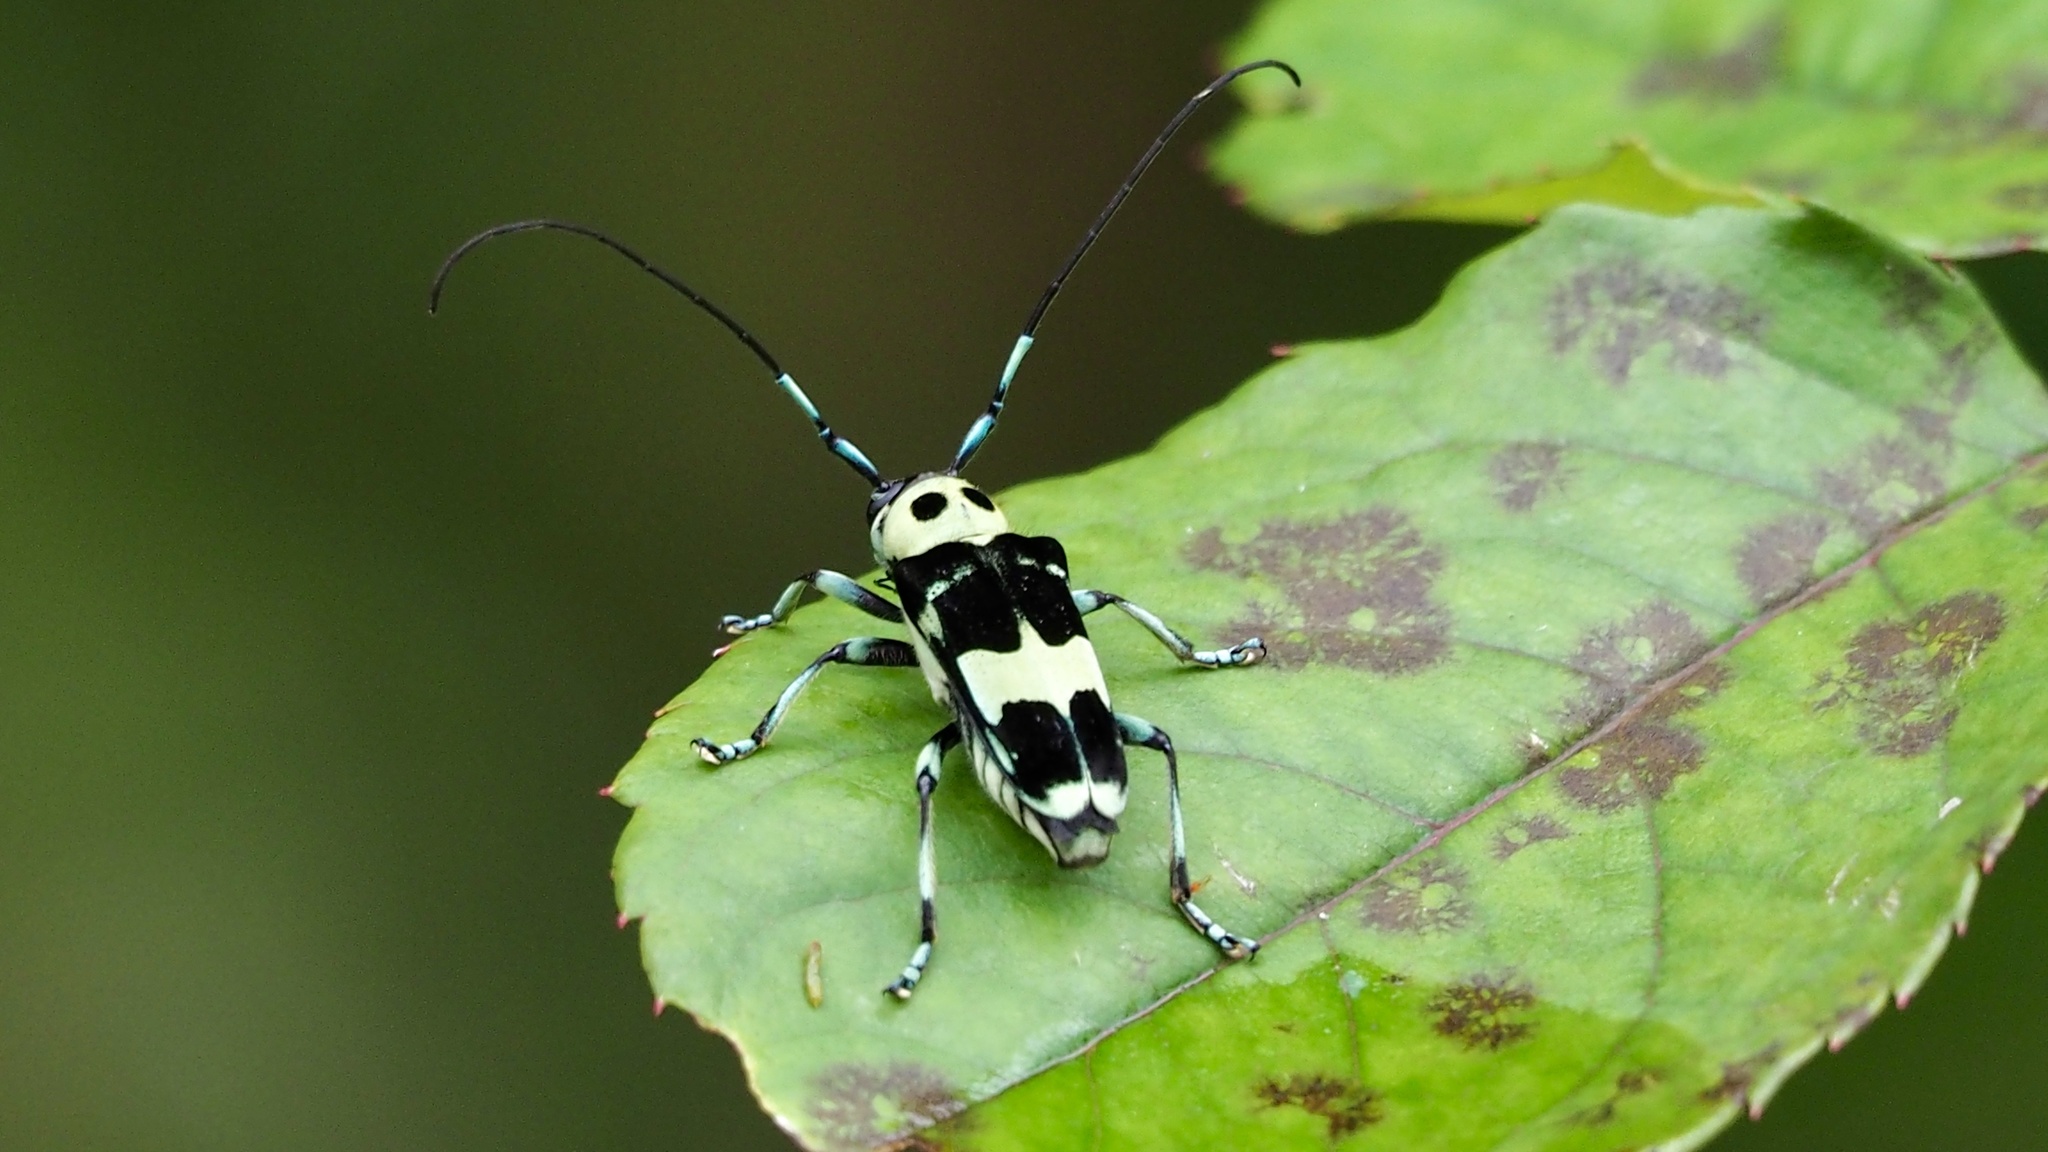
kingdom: Animalia
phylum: Arthropoda
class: Insecta
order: Coleoptera
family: Cerambycidae
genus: Paraglenea
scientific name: Paraglenea fortunei
